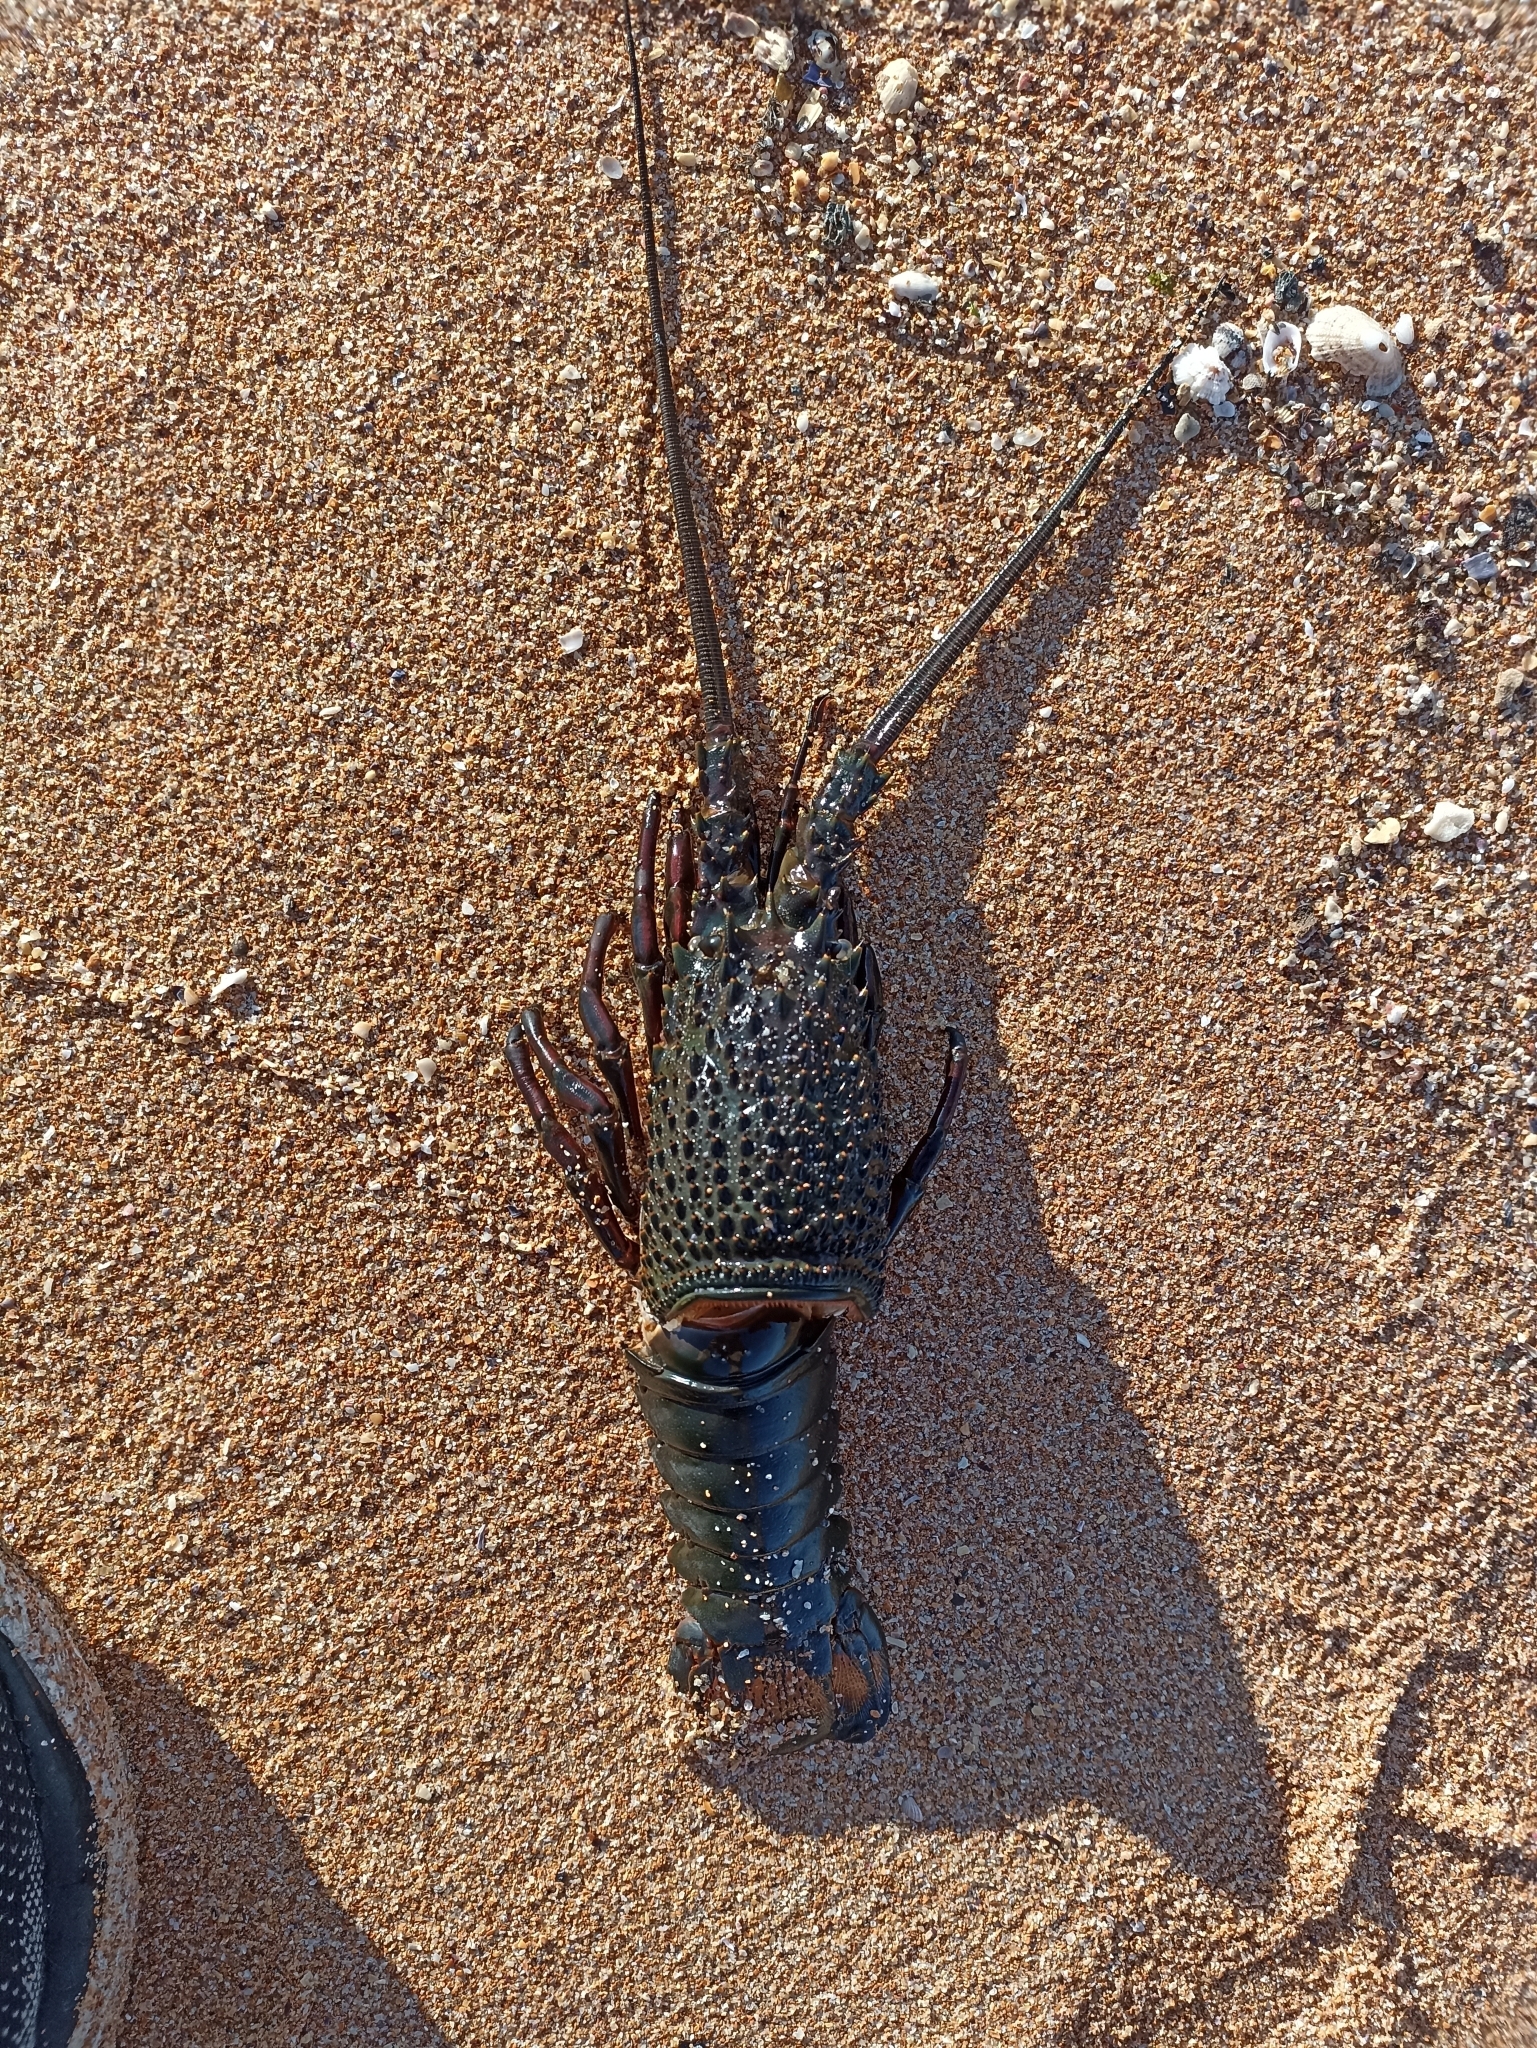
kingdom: Animalia
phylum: Arthropoda
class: Malacostraca
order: Decapoda
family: Palinuridae
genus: Sagmariasus
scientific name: Sagmariasus verreauxi
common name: Green rock lobster
